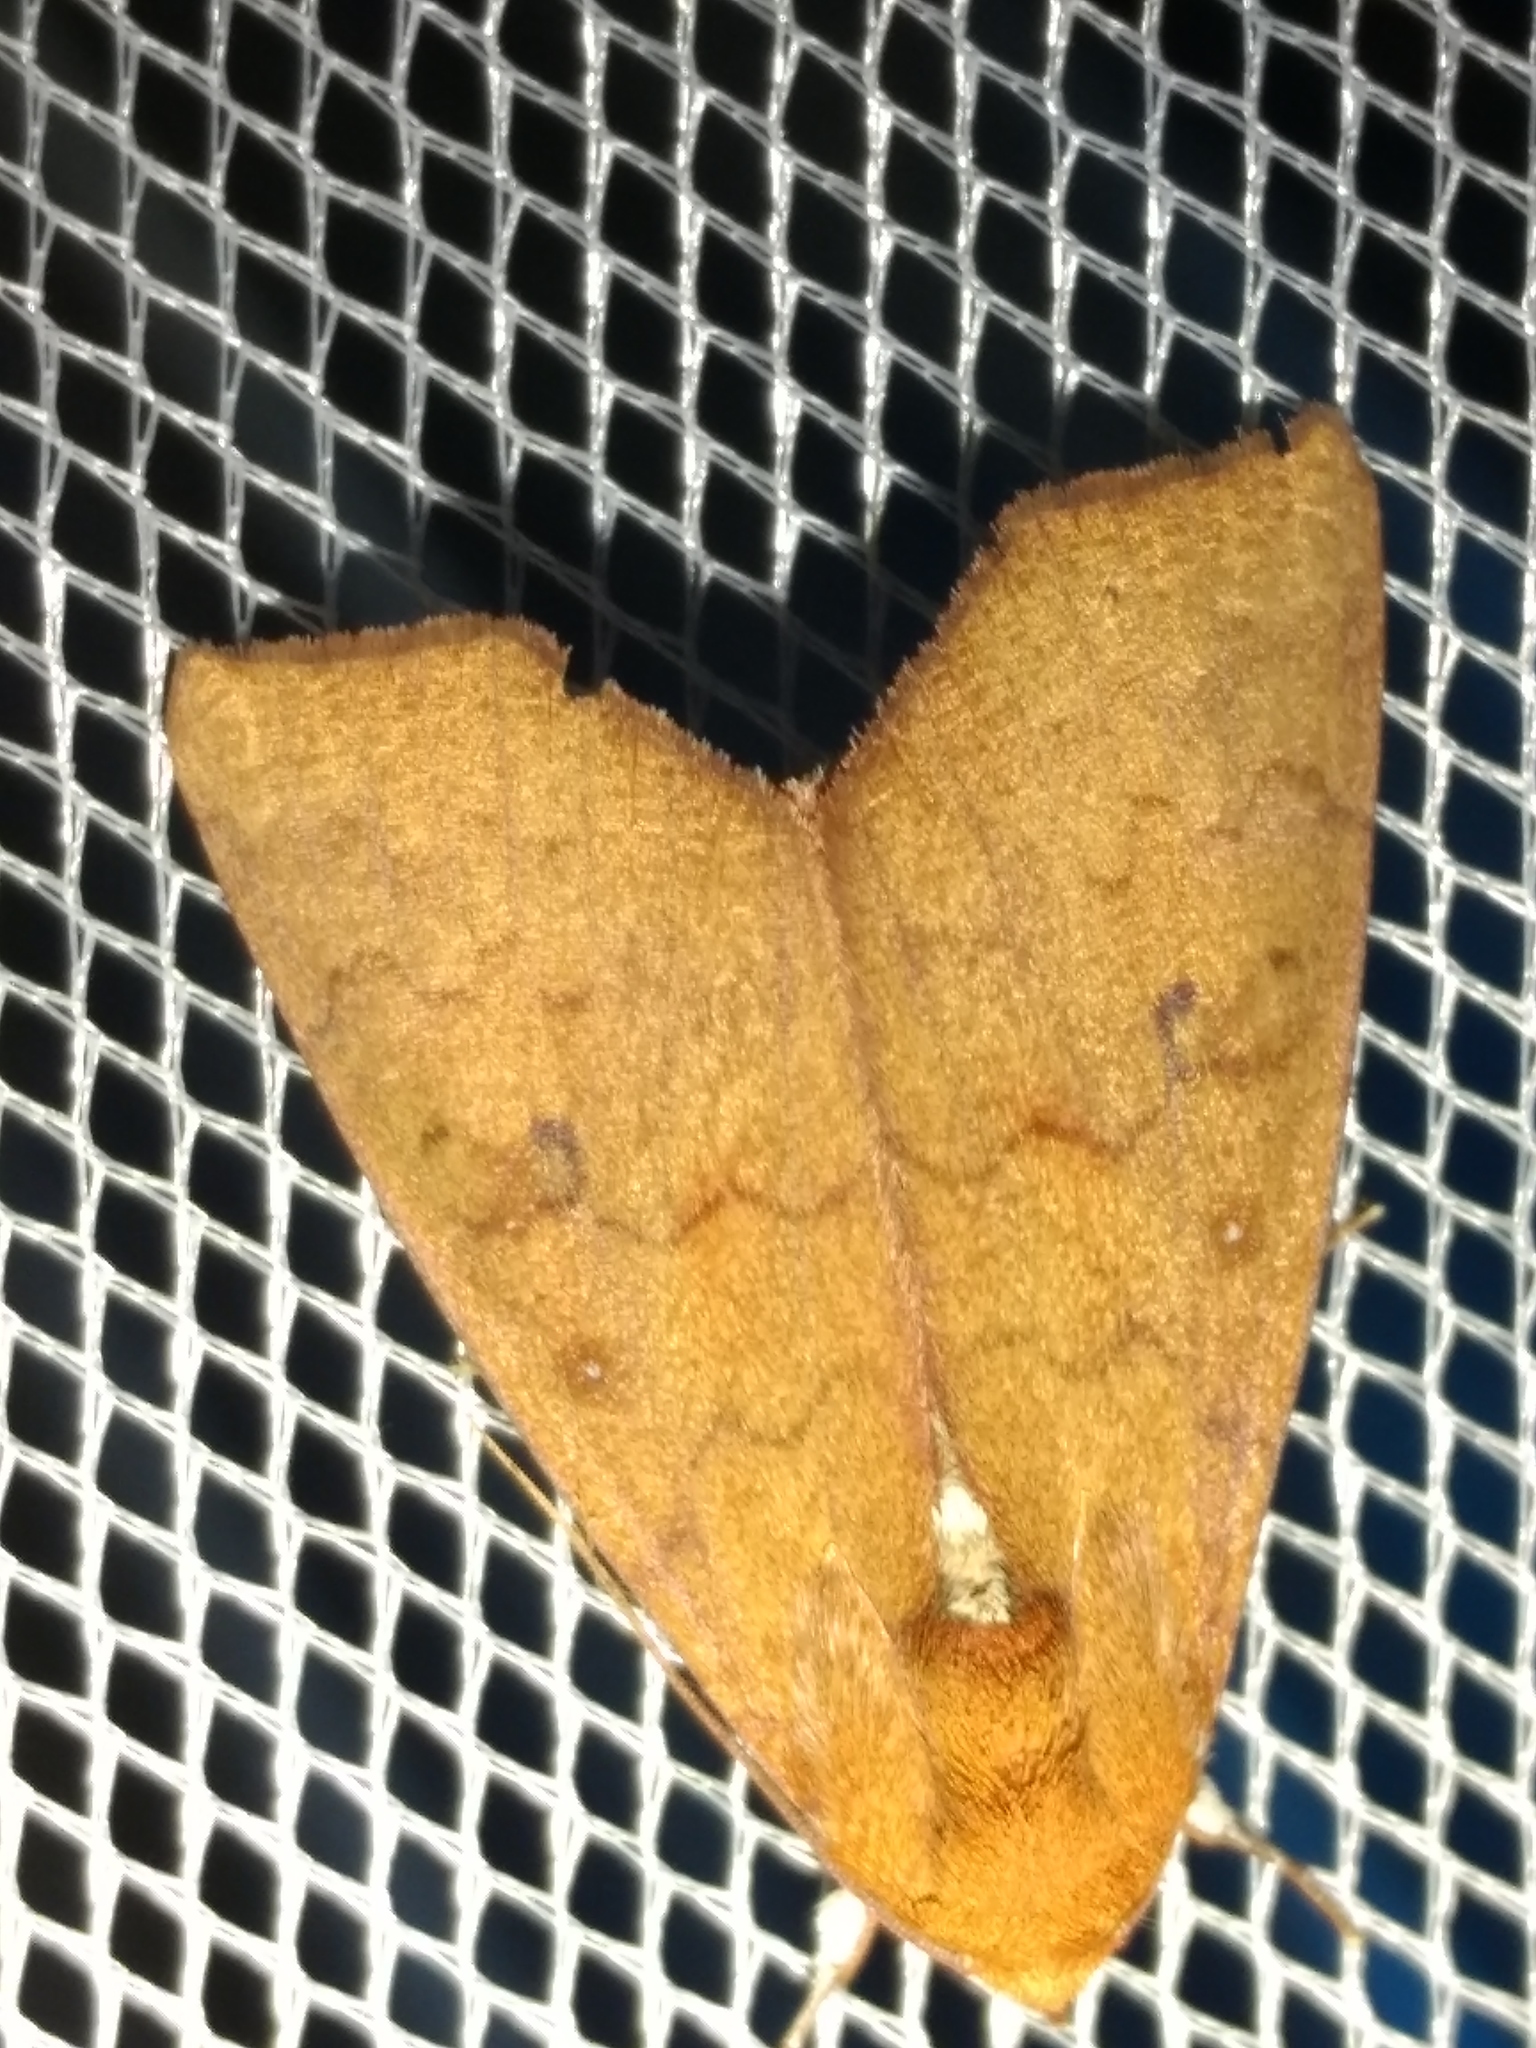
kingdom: Animalia
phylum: Arthropoda
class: Insecta
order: Lepidoptera
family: Erebidae
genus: Rusicada
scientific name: Rusicada combinans
